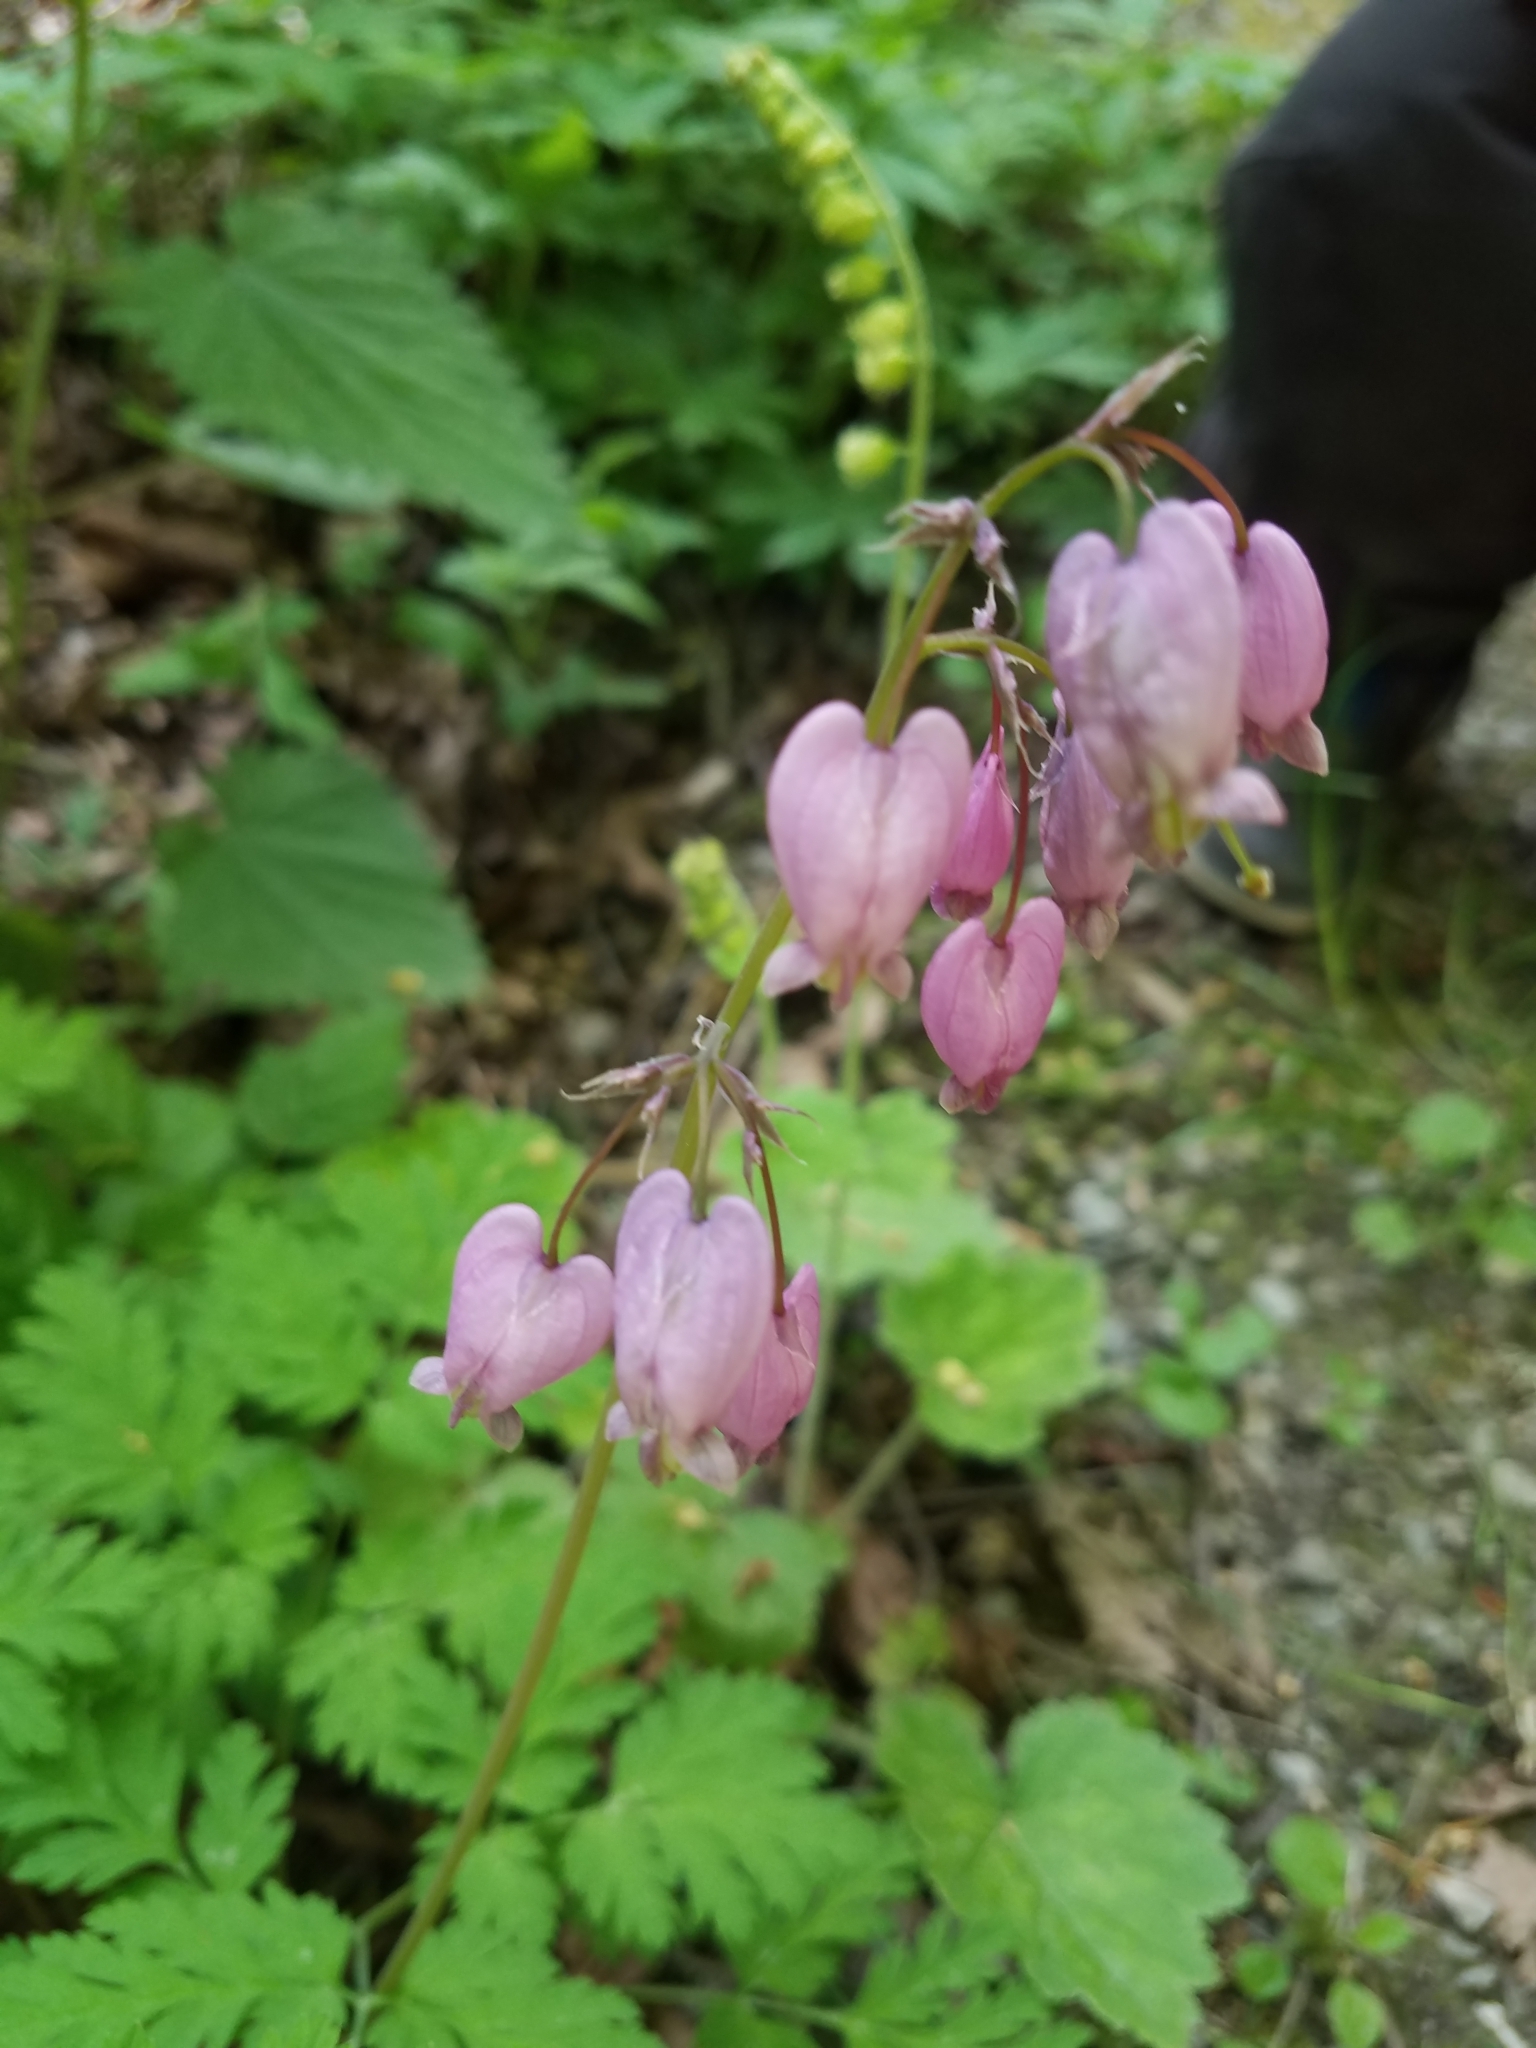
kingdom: Plantae
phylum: Tracheophyta
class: Magnoliopsida
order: Ranunculales
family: Papaveraceae
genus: Dicentra
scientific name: Dicentra formosa
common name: Bleeding-heart
